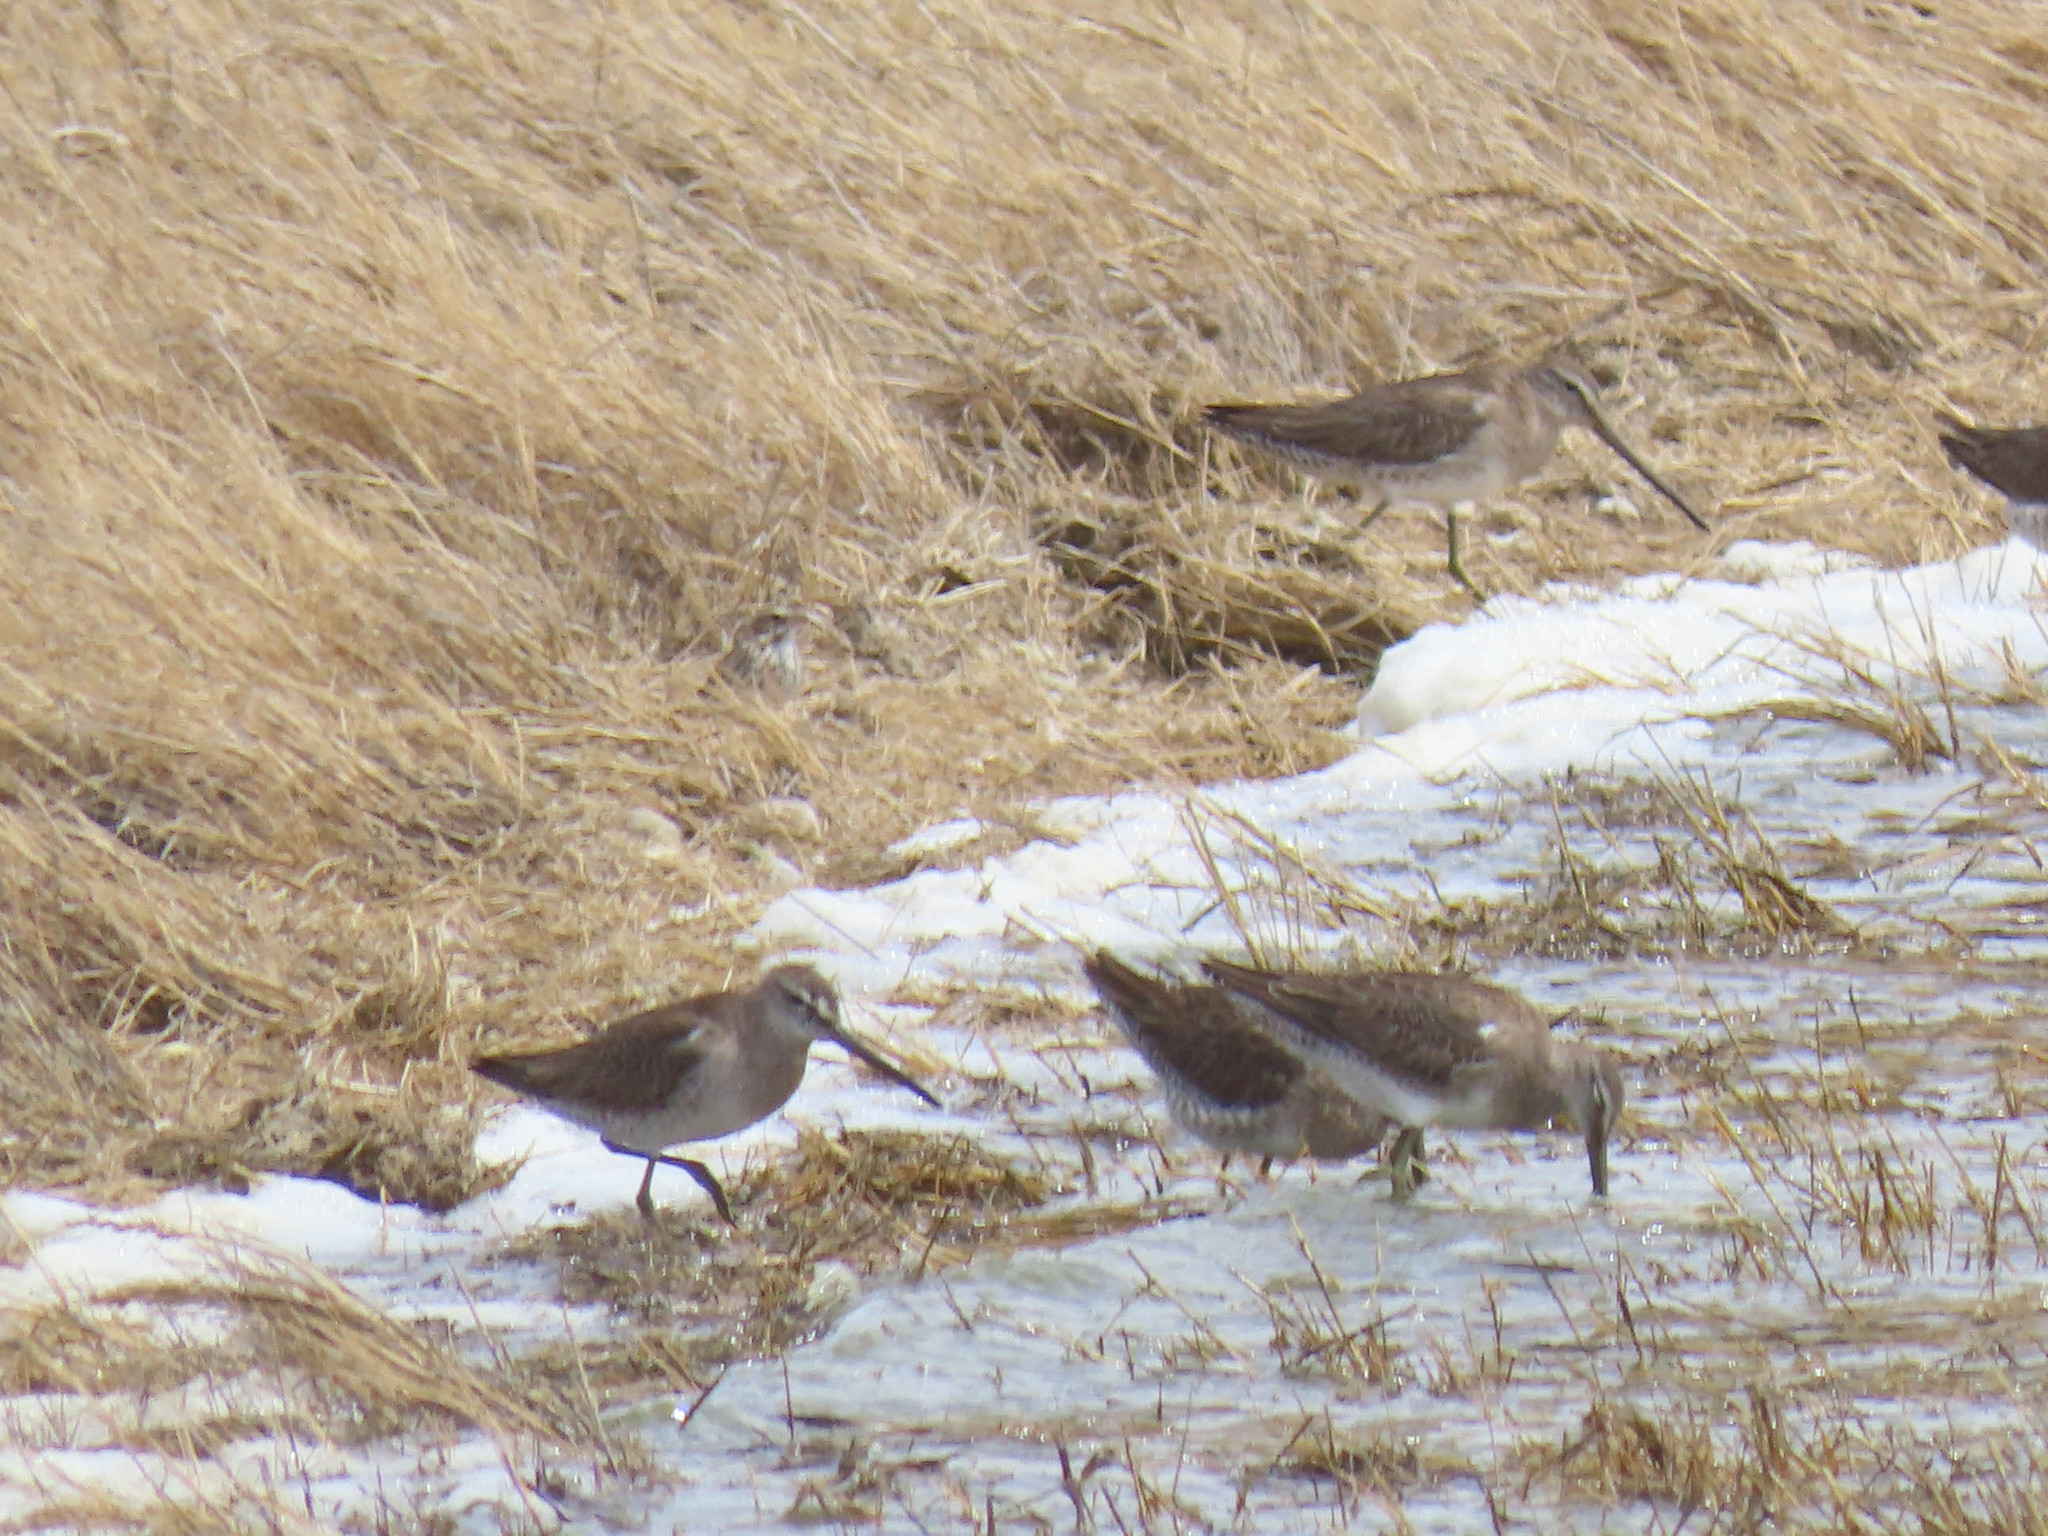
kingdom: Animalia
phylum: Chordata
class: Aves
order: Charadriiformes
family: Scolopacidae
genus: Limnodromus
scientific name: Limnodromus scolopaceus
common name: Long-billed dowitcher
